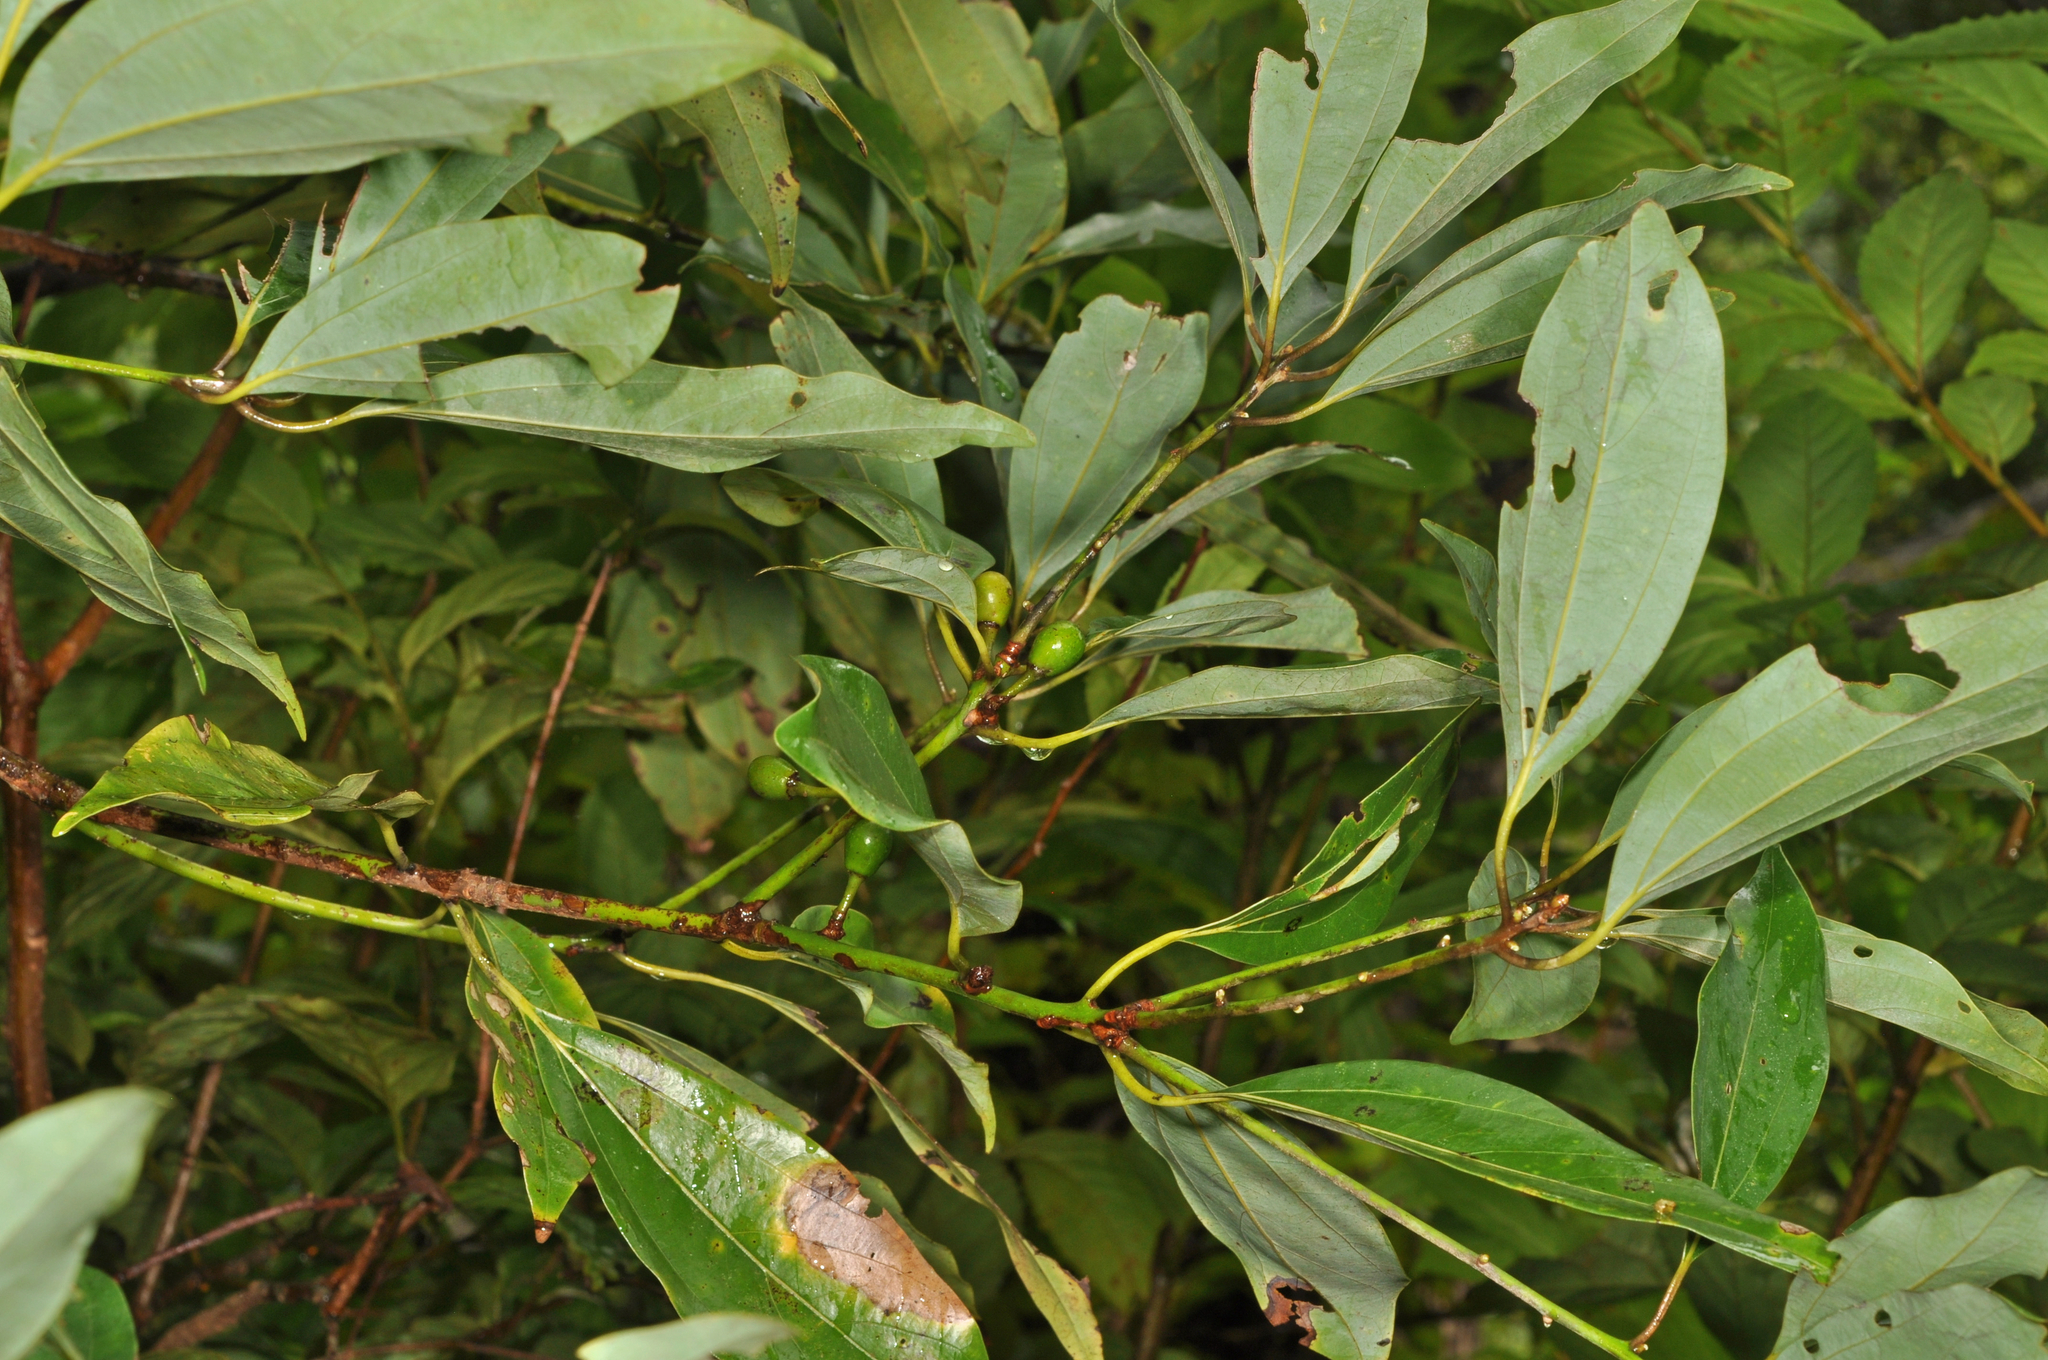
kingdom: Plantae
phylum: Tracheophyta
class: Magnoliopsida
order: Laurales
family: Lauraceae
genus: Neolitsea
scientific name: Neolitsea sericea
